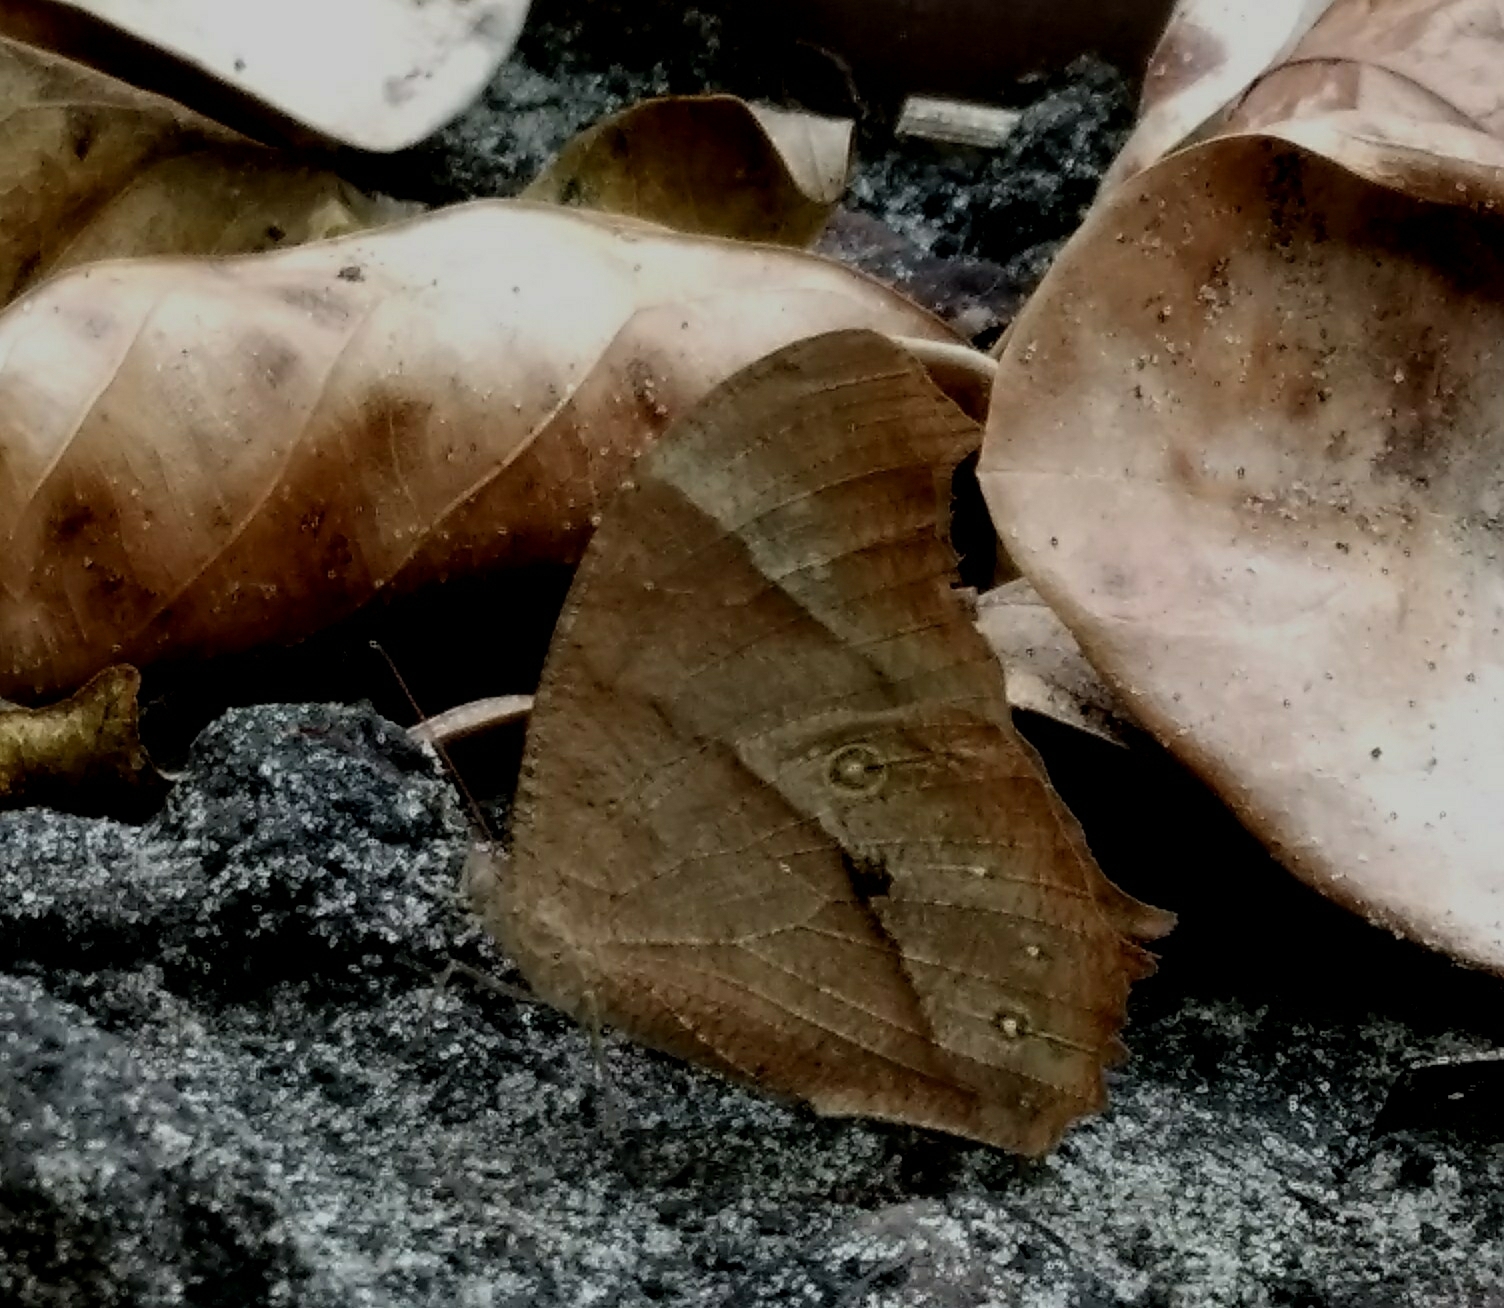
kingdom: Animalia
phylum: Arthropoda
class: Insecta
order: Lepidoptera
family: Nymphalidae
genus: Melanitis
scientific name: Melanitis leda
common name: Twilight brown
